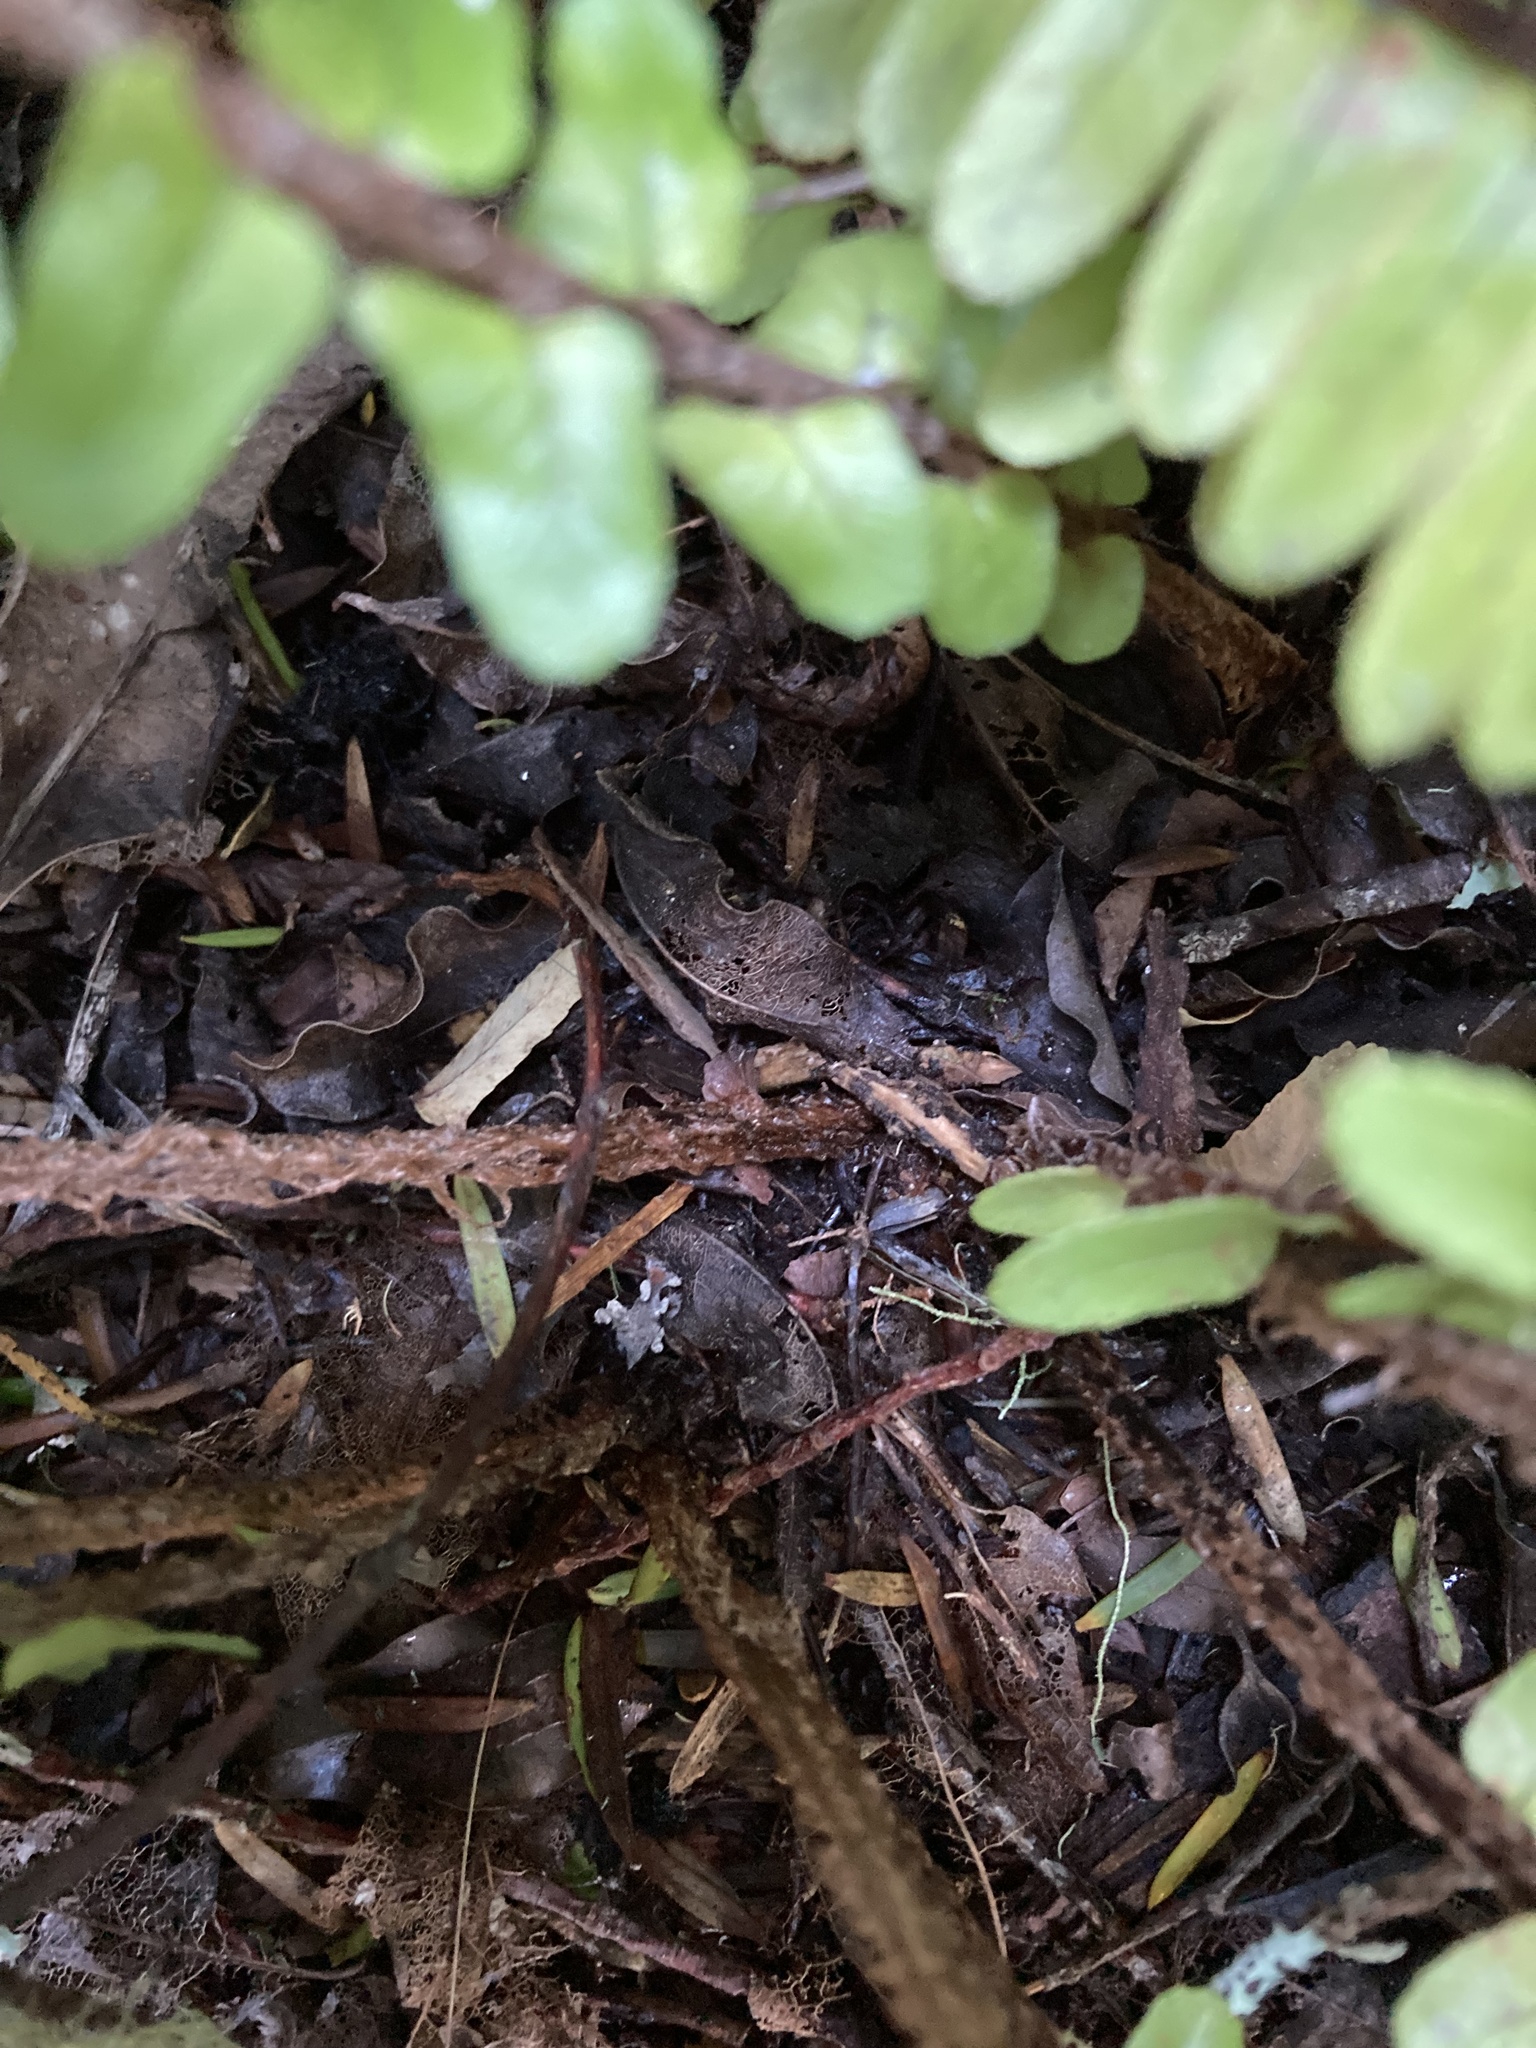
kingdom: Plantae
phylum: Tracheophyta
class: Polypodiopsida
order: Polypodiales
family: Nephrolepidaceae
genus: Nephrolepis
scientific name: Nephrolepis cordifolia
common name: Narrow swordfern
